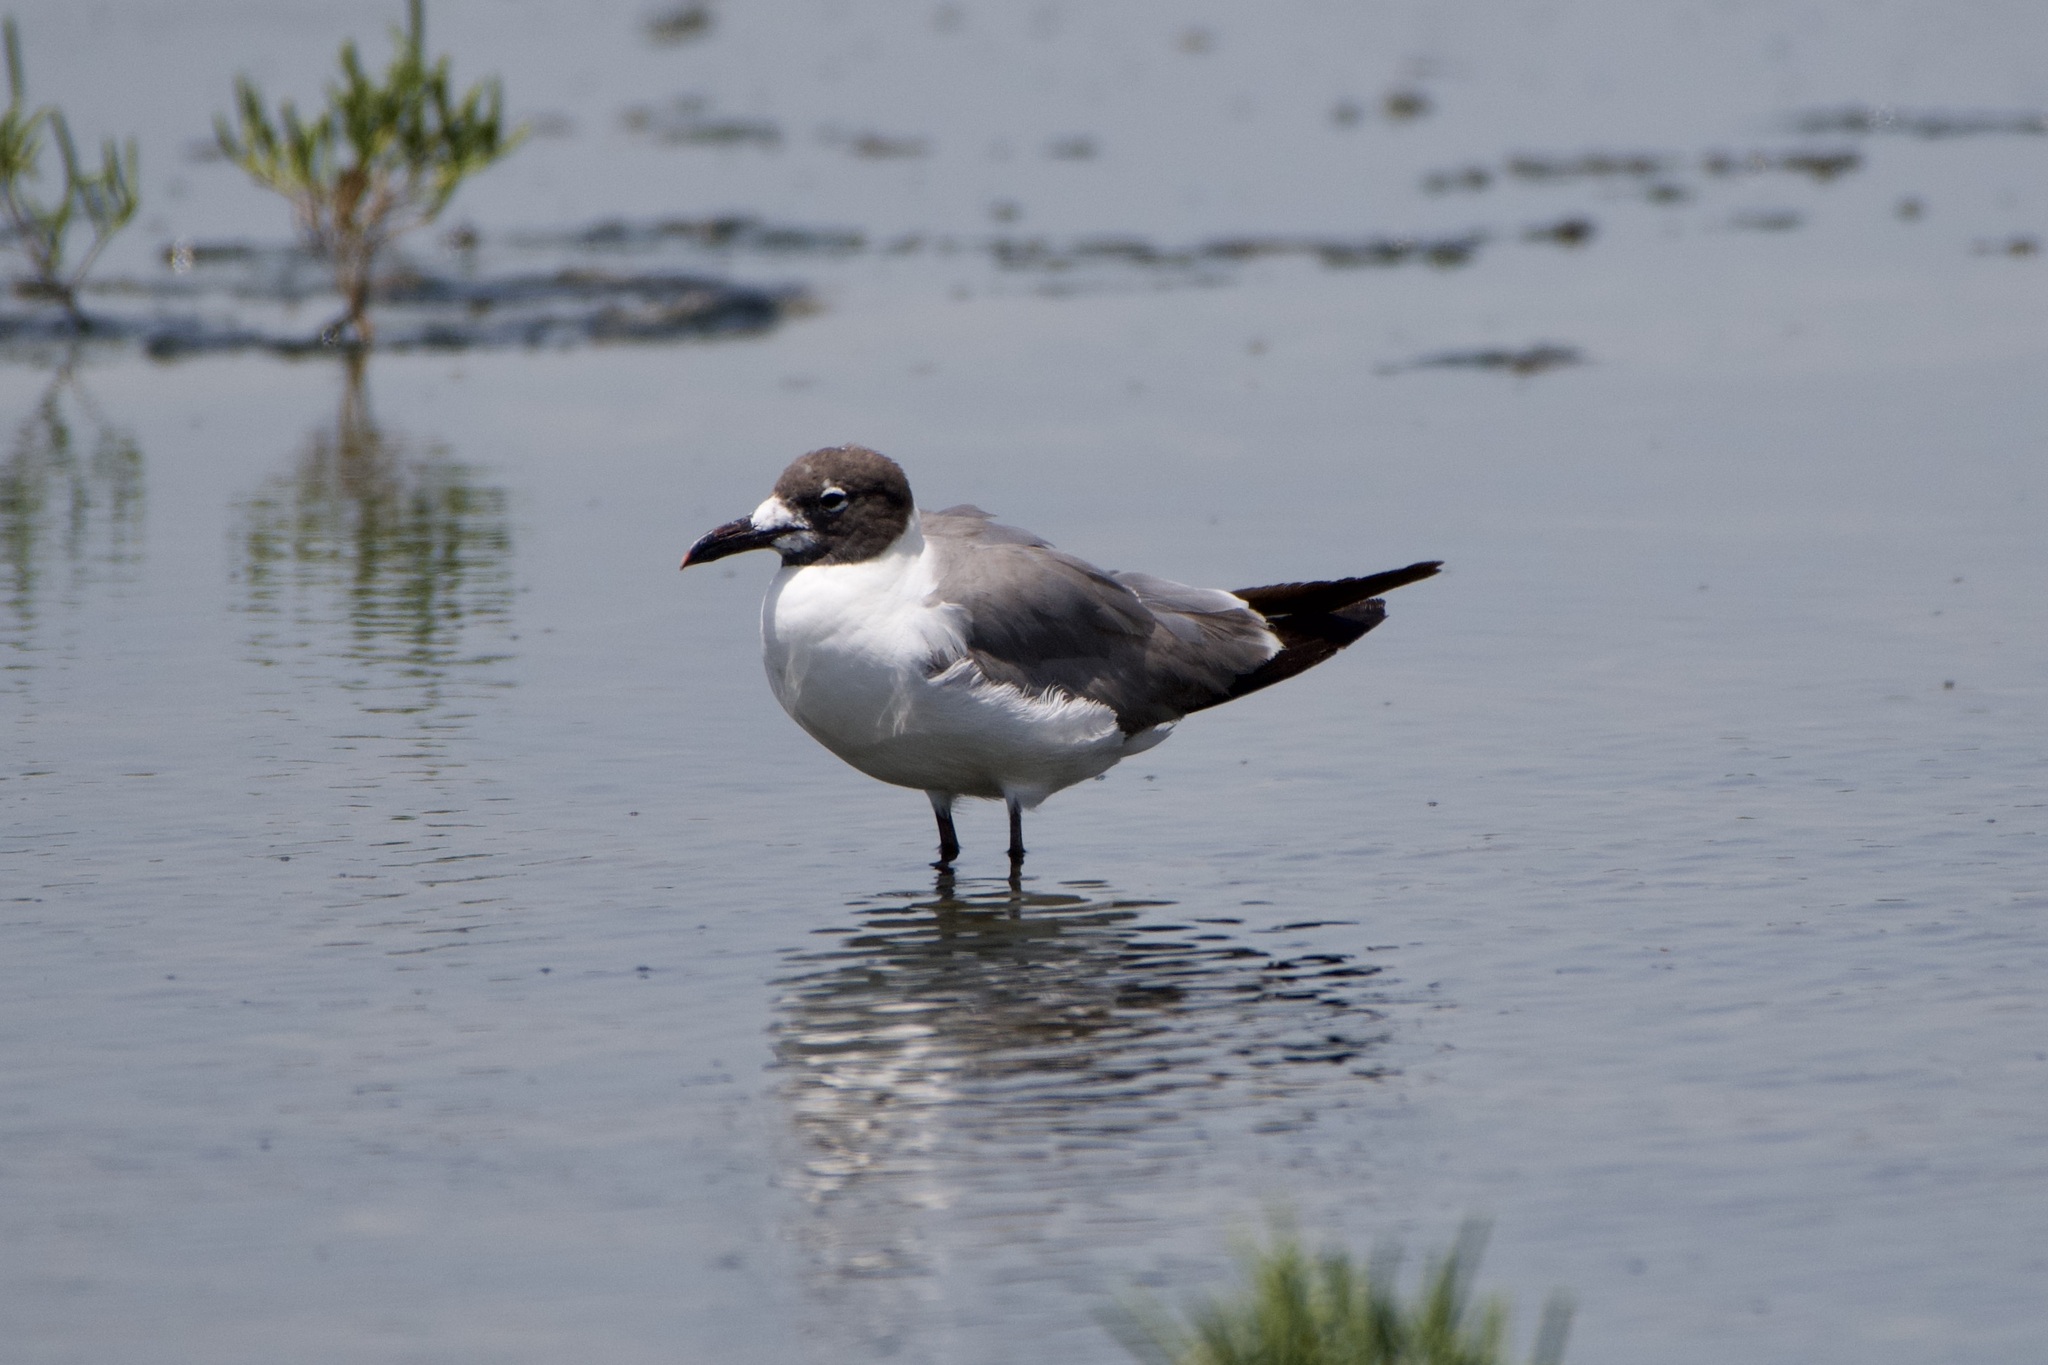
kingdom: Animalia
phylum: Chordata
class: Aves
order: Charadriiformes
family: Laridae
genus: Leucophaeus
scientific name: Leucophaeus atricilla
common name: Laughing gull
